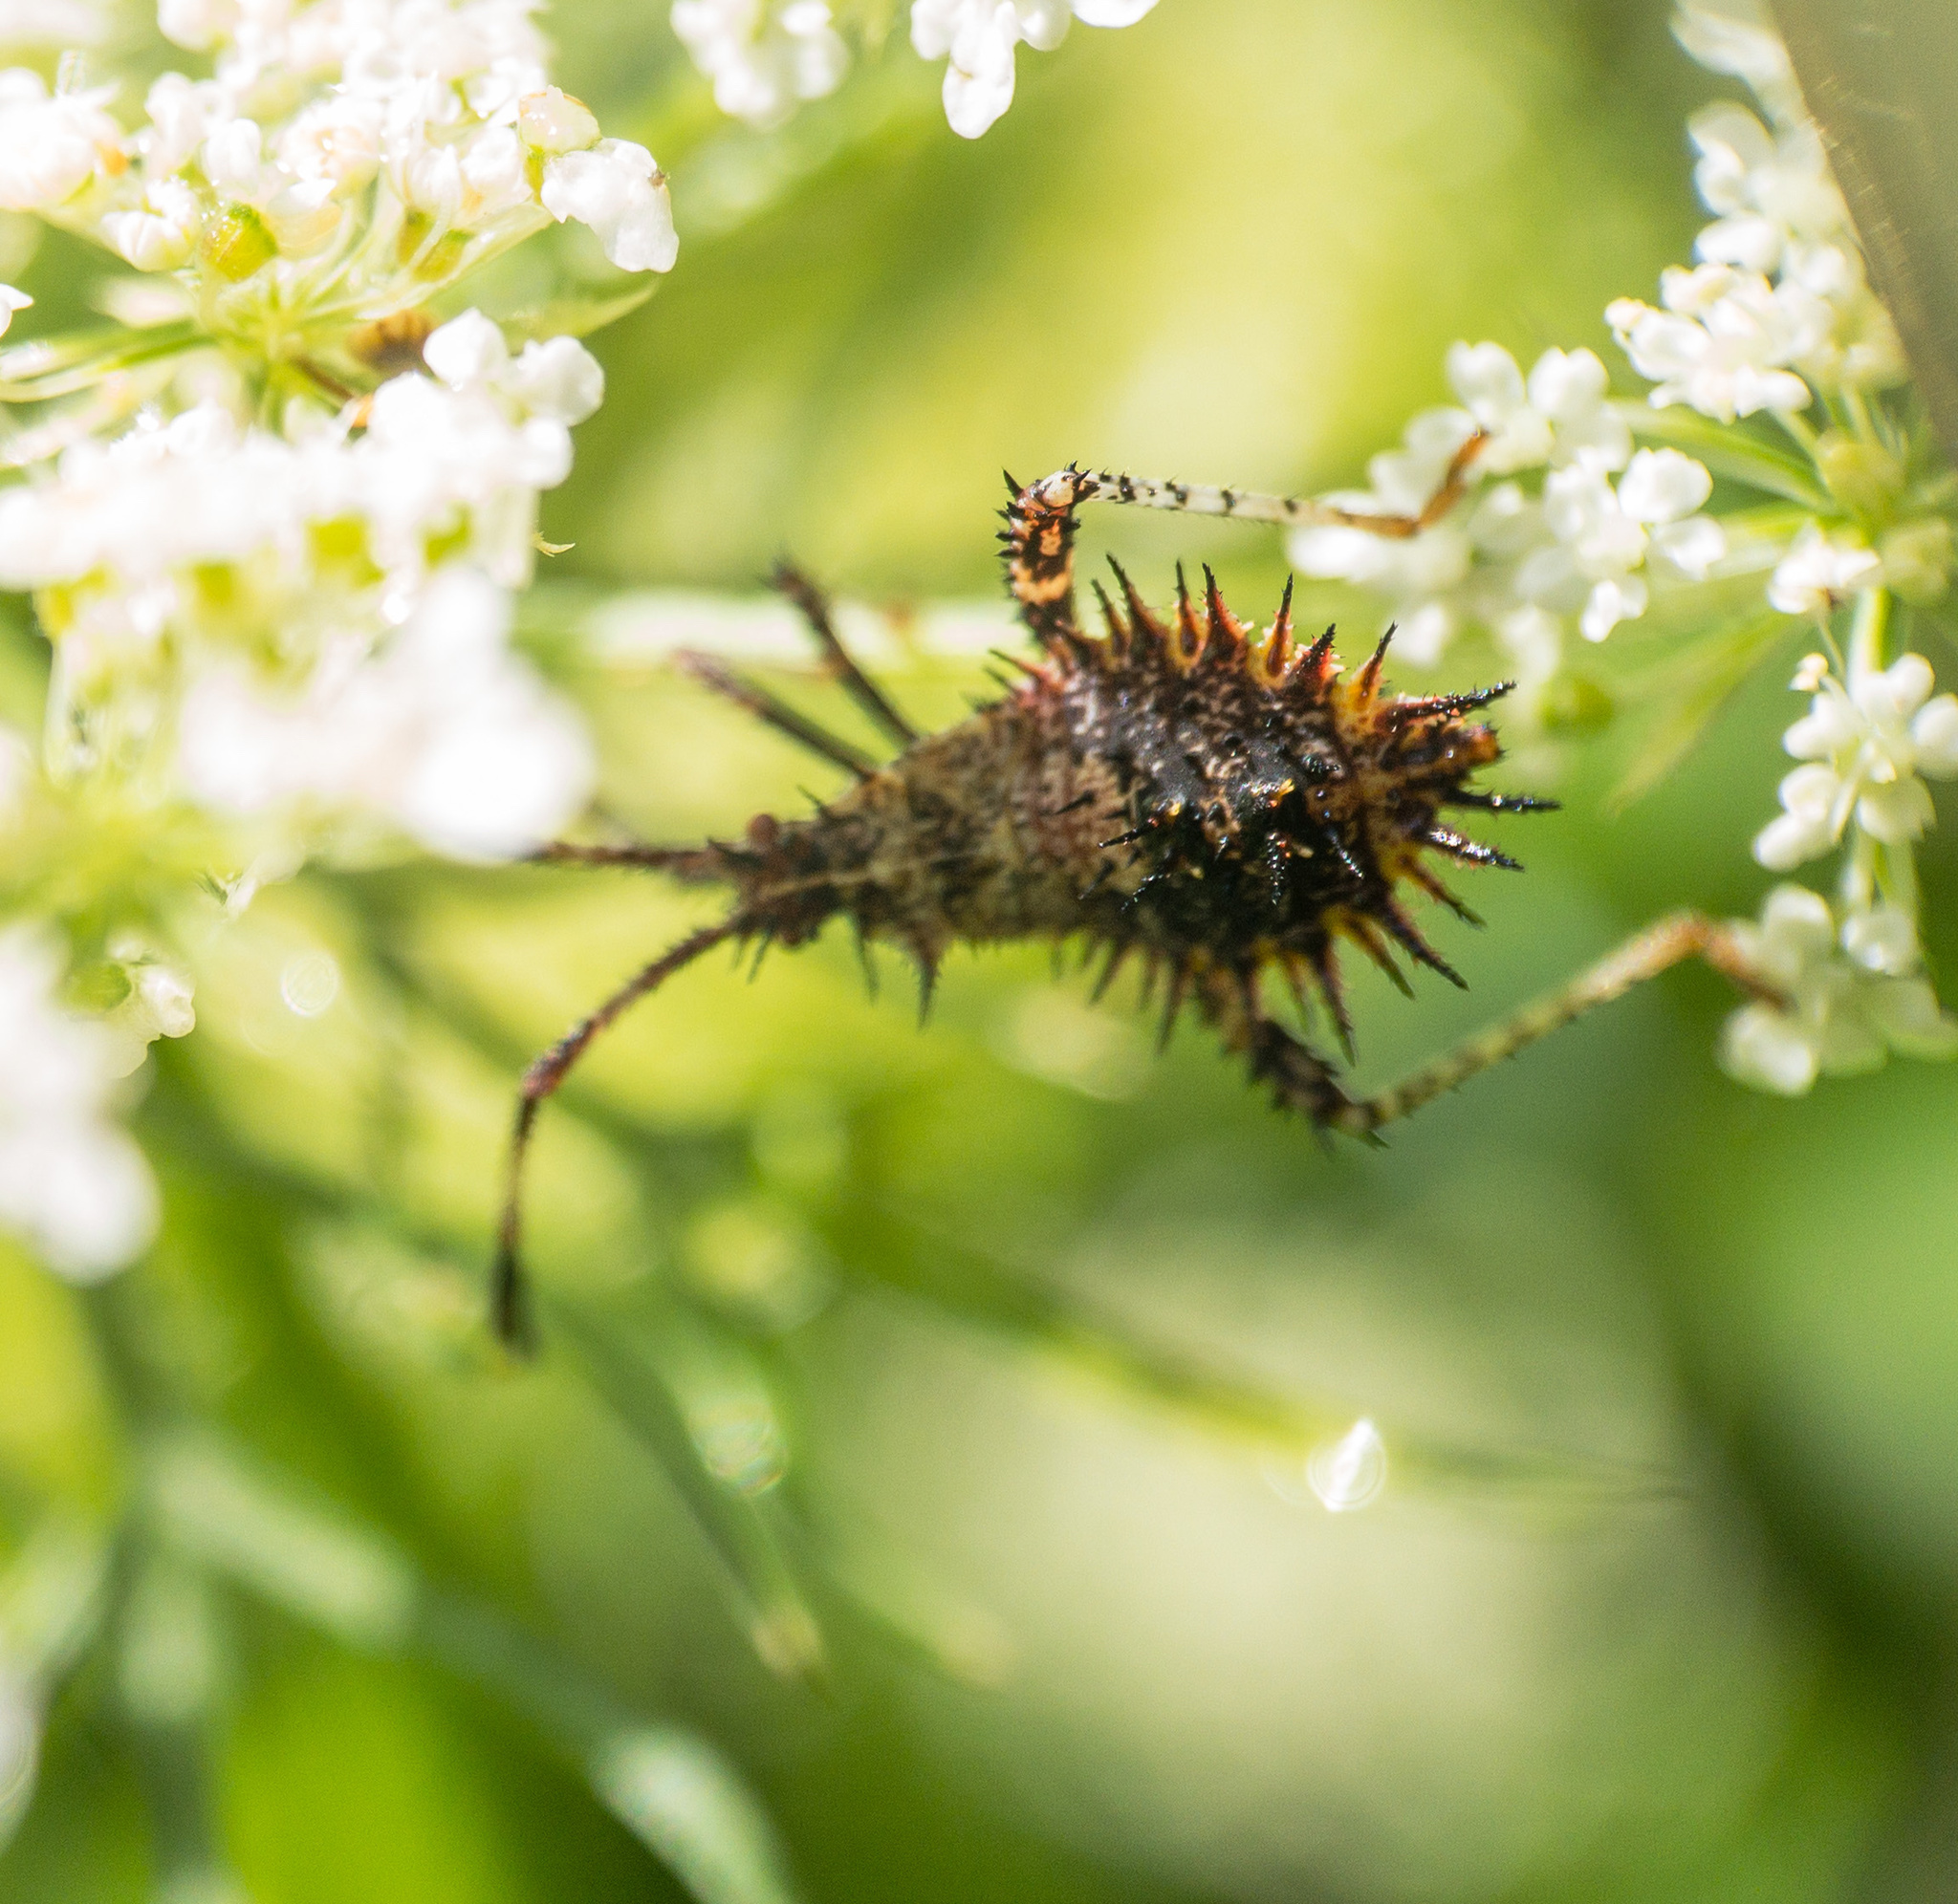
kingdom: Animalia
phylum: Arthropoda
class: Insecta
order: Hemiptera
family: Coreidae
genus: Euthochtha
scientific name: Euthochtha galeator
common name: Helmeted squash bug
